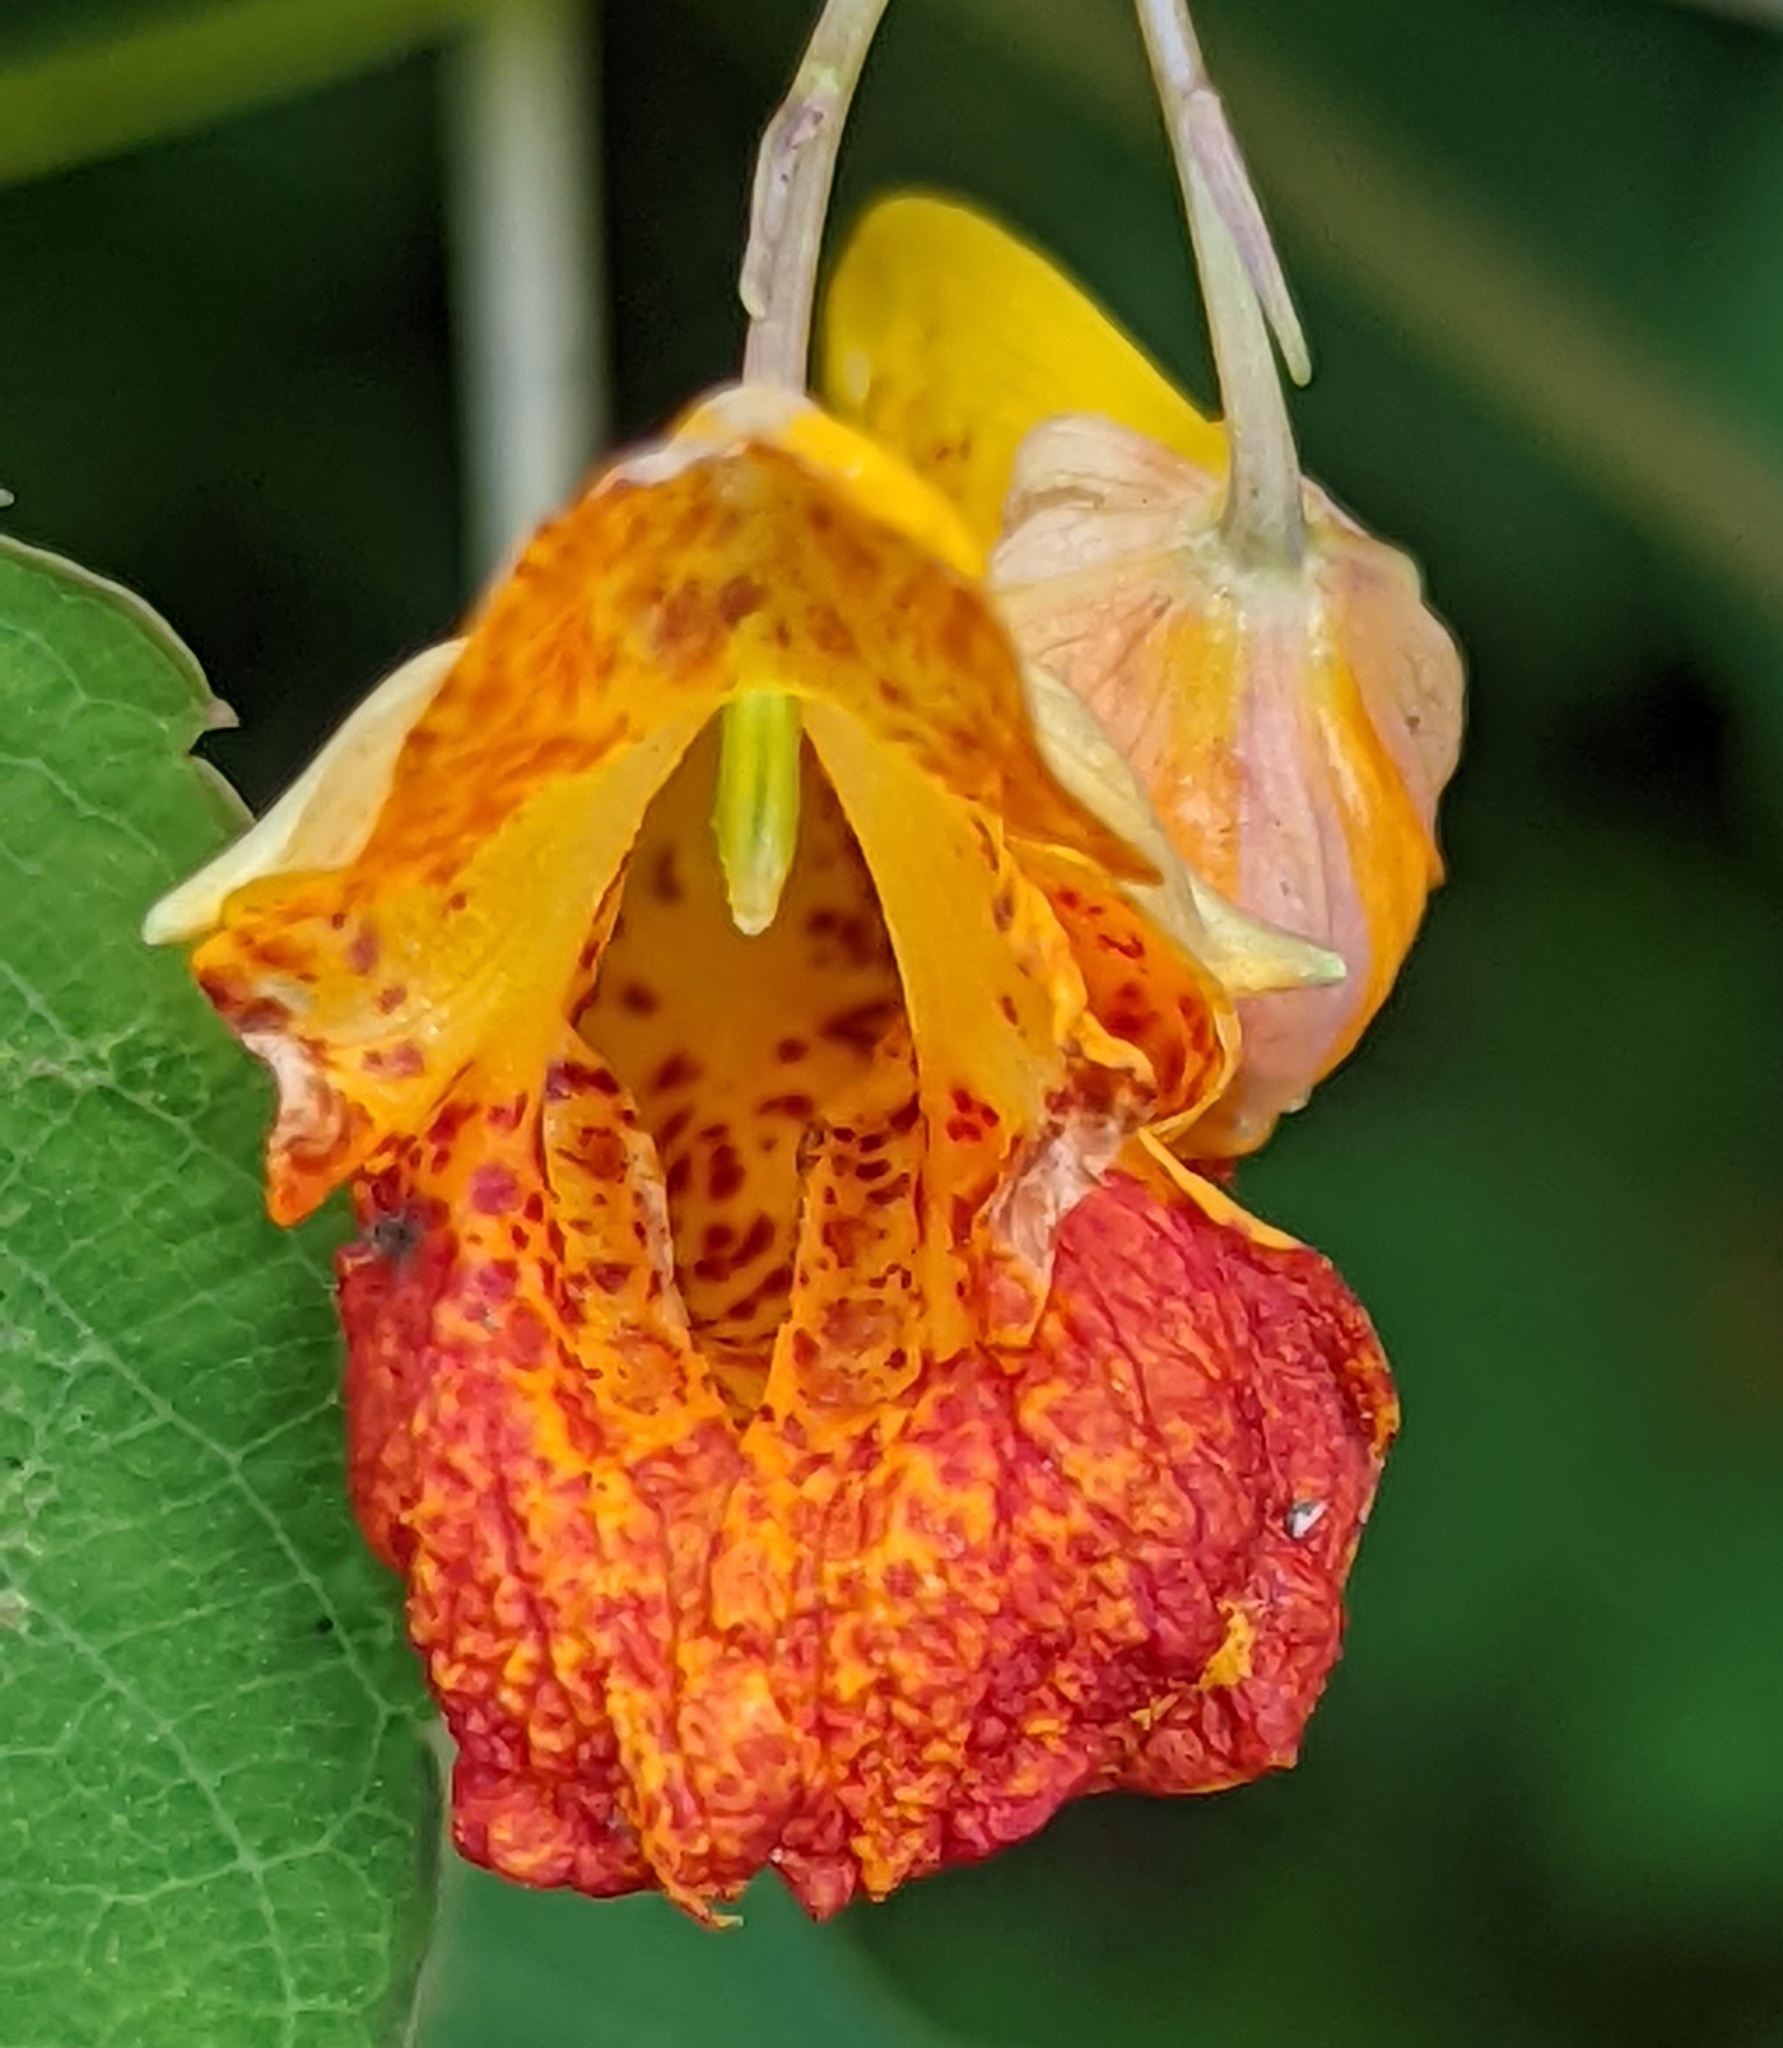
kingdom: Plantae
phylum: Tracheophyta
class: Magnoliopsida
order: Ericales
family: Balsaminaceae
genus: Impatiens
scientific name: Impatiens capensis
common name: Orange balsam
